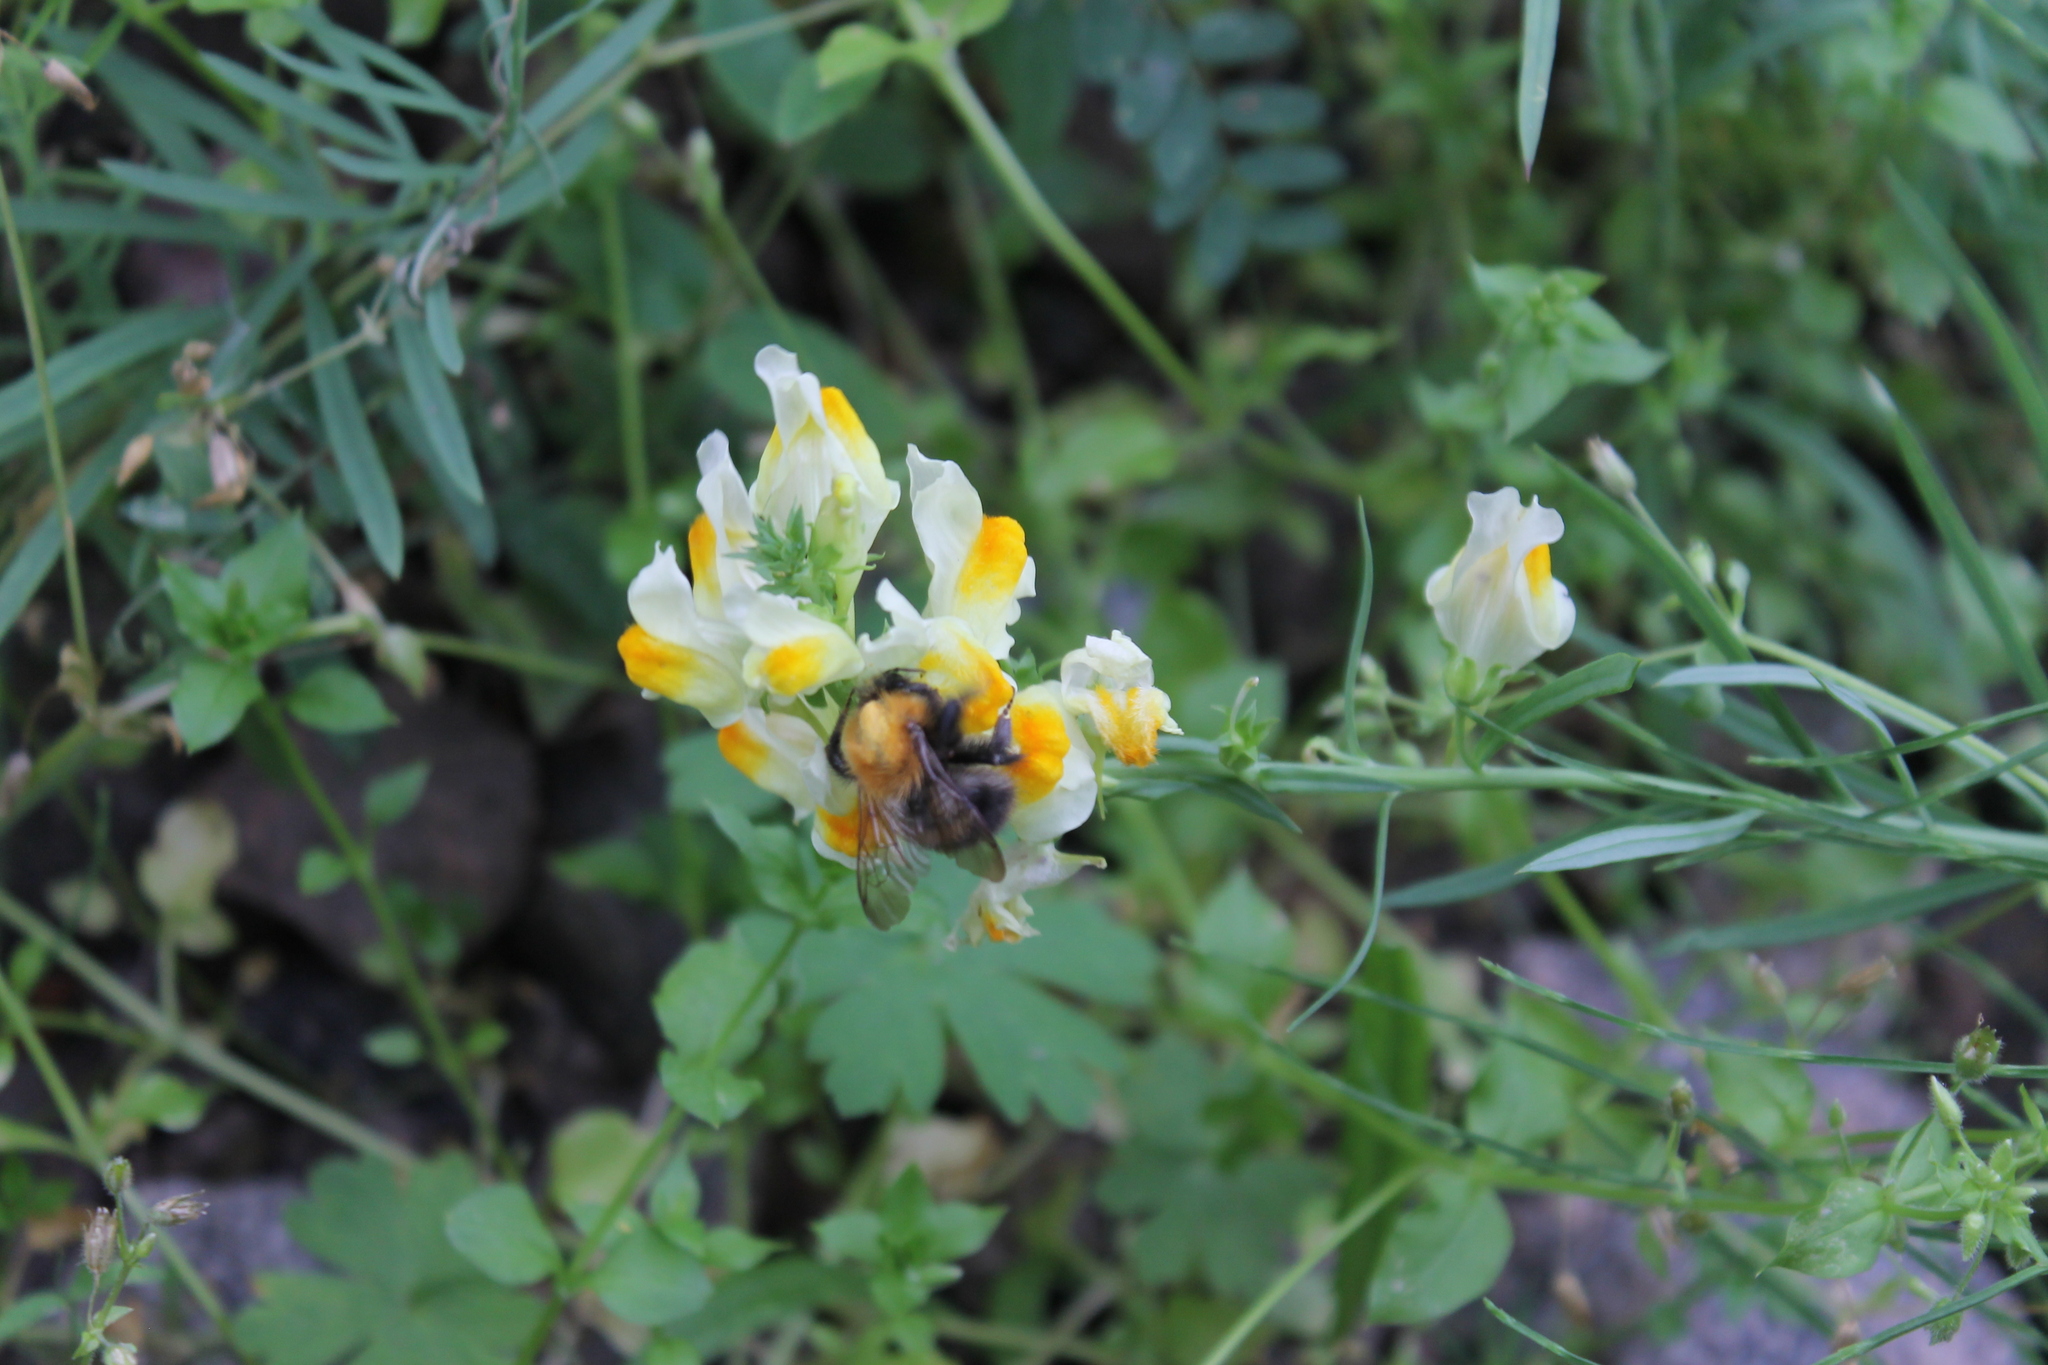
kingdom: Animalia
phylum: Arthropoda
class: Insecta
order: Hymenoptera
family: Apidae
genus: Bombus
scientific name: Bombus pascuorum
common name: Common carder bee
